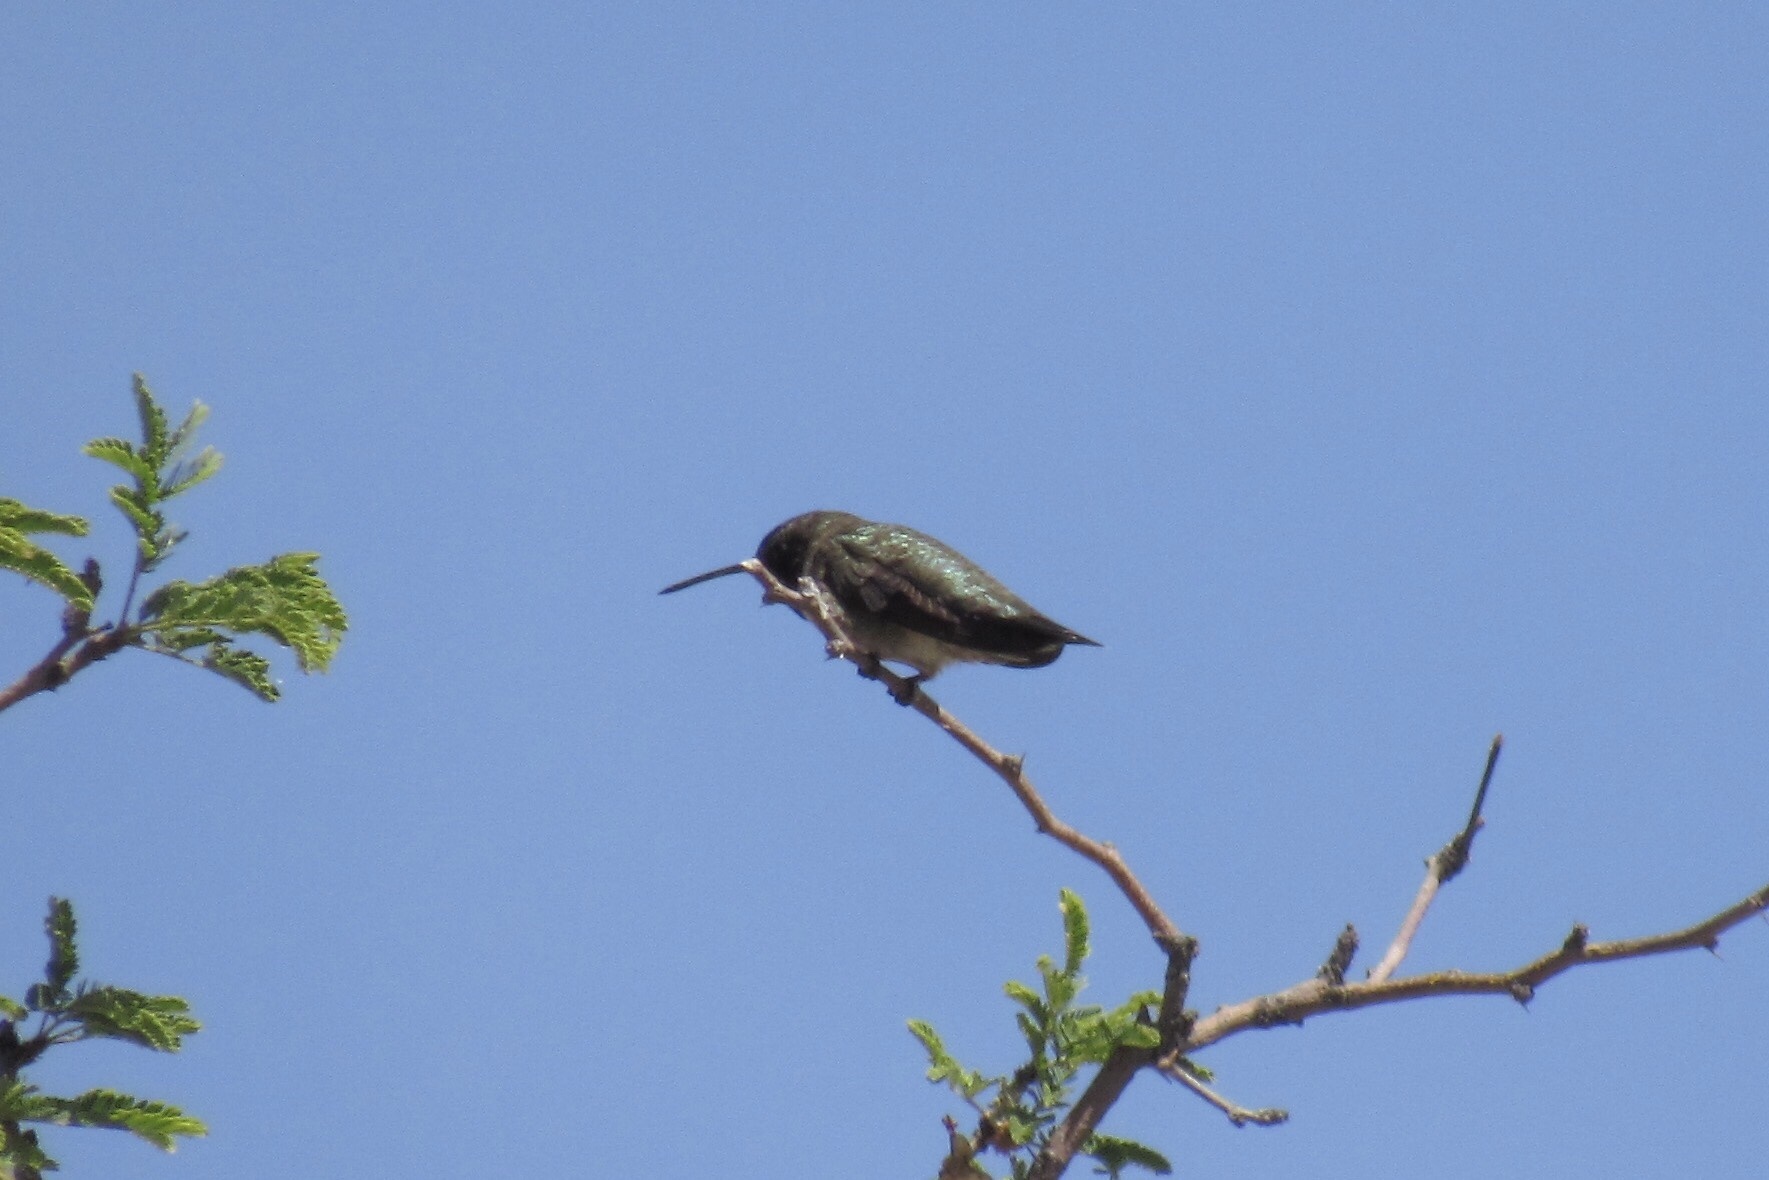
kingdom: Animalia
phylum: Chordata
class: Aves
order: Apodiformes
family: Trochilidae
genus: Archilochus
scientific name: Archilochus alexandri
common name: Black-chinned hummingbird
